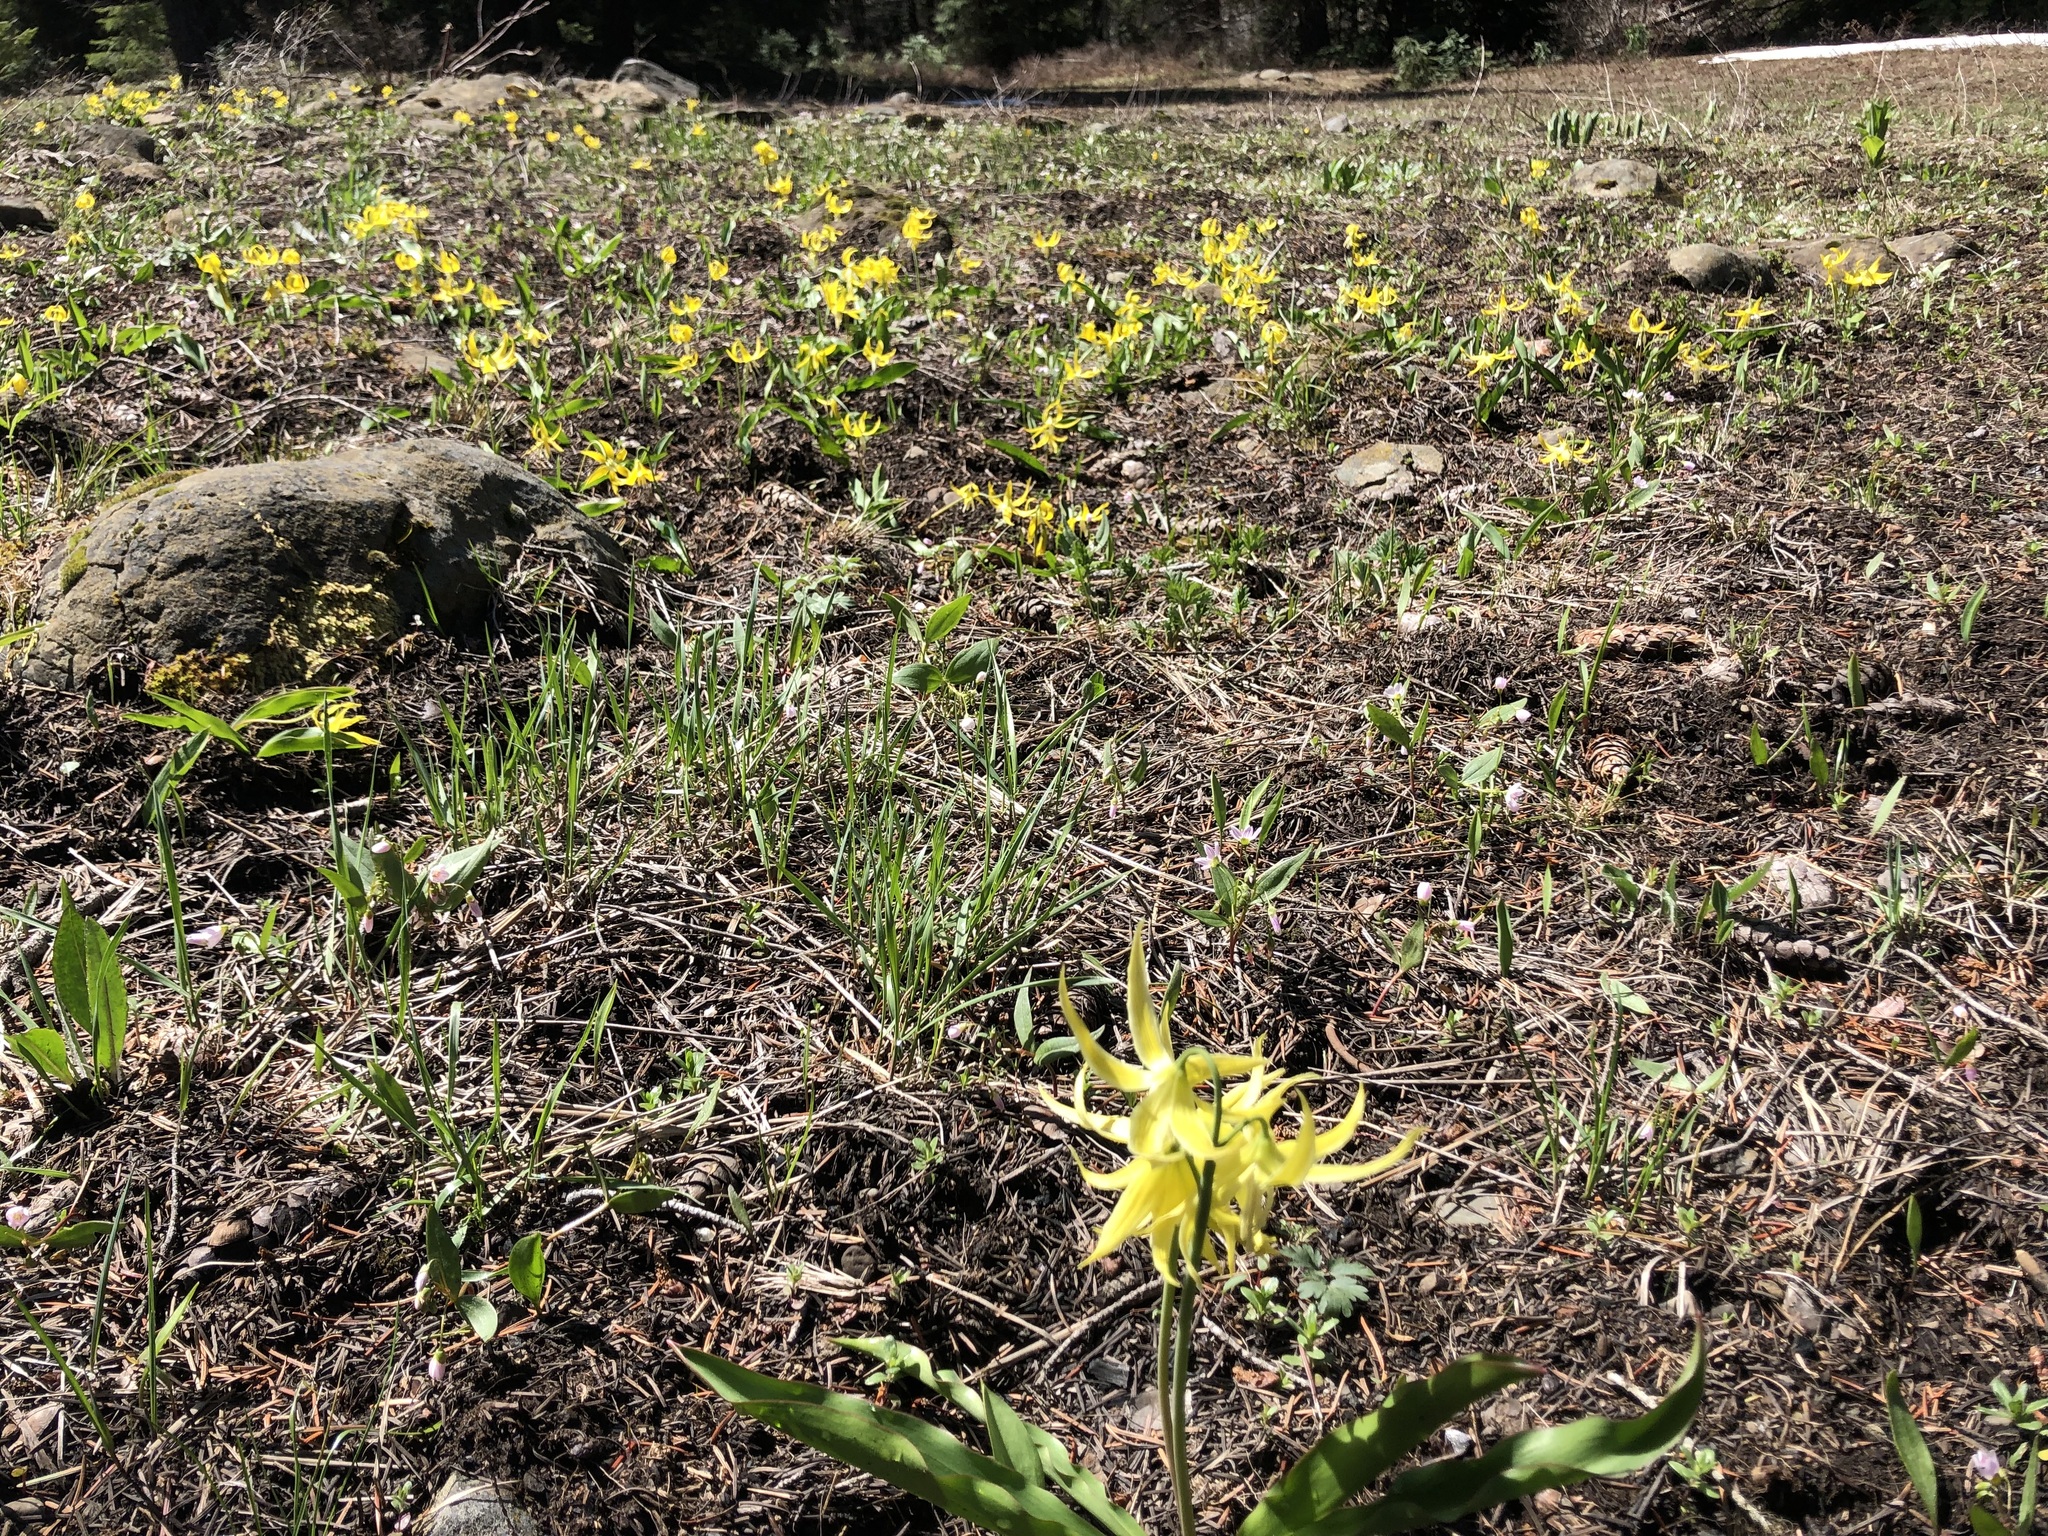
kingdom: Plantae
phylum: Tracheophyta
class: Liliopsida
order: Liliales
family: Liliaceae
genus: Erythronium
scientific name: Erythronium grandiflorum
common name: Avalanche-lily
